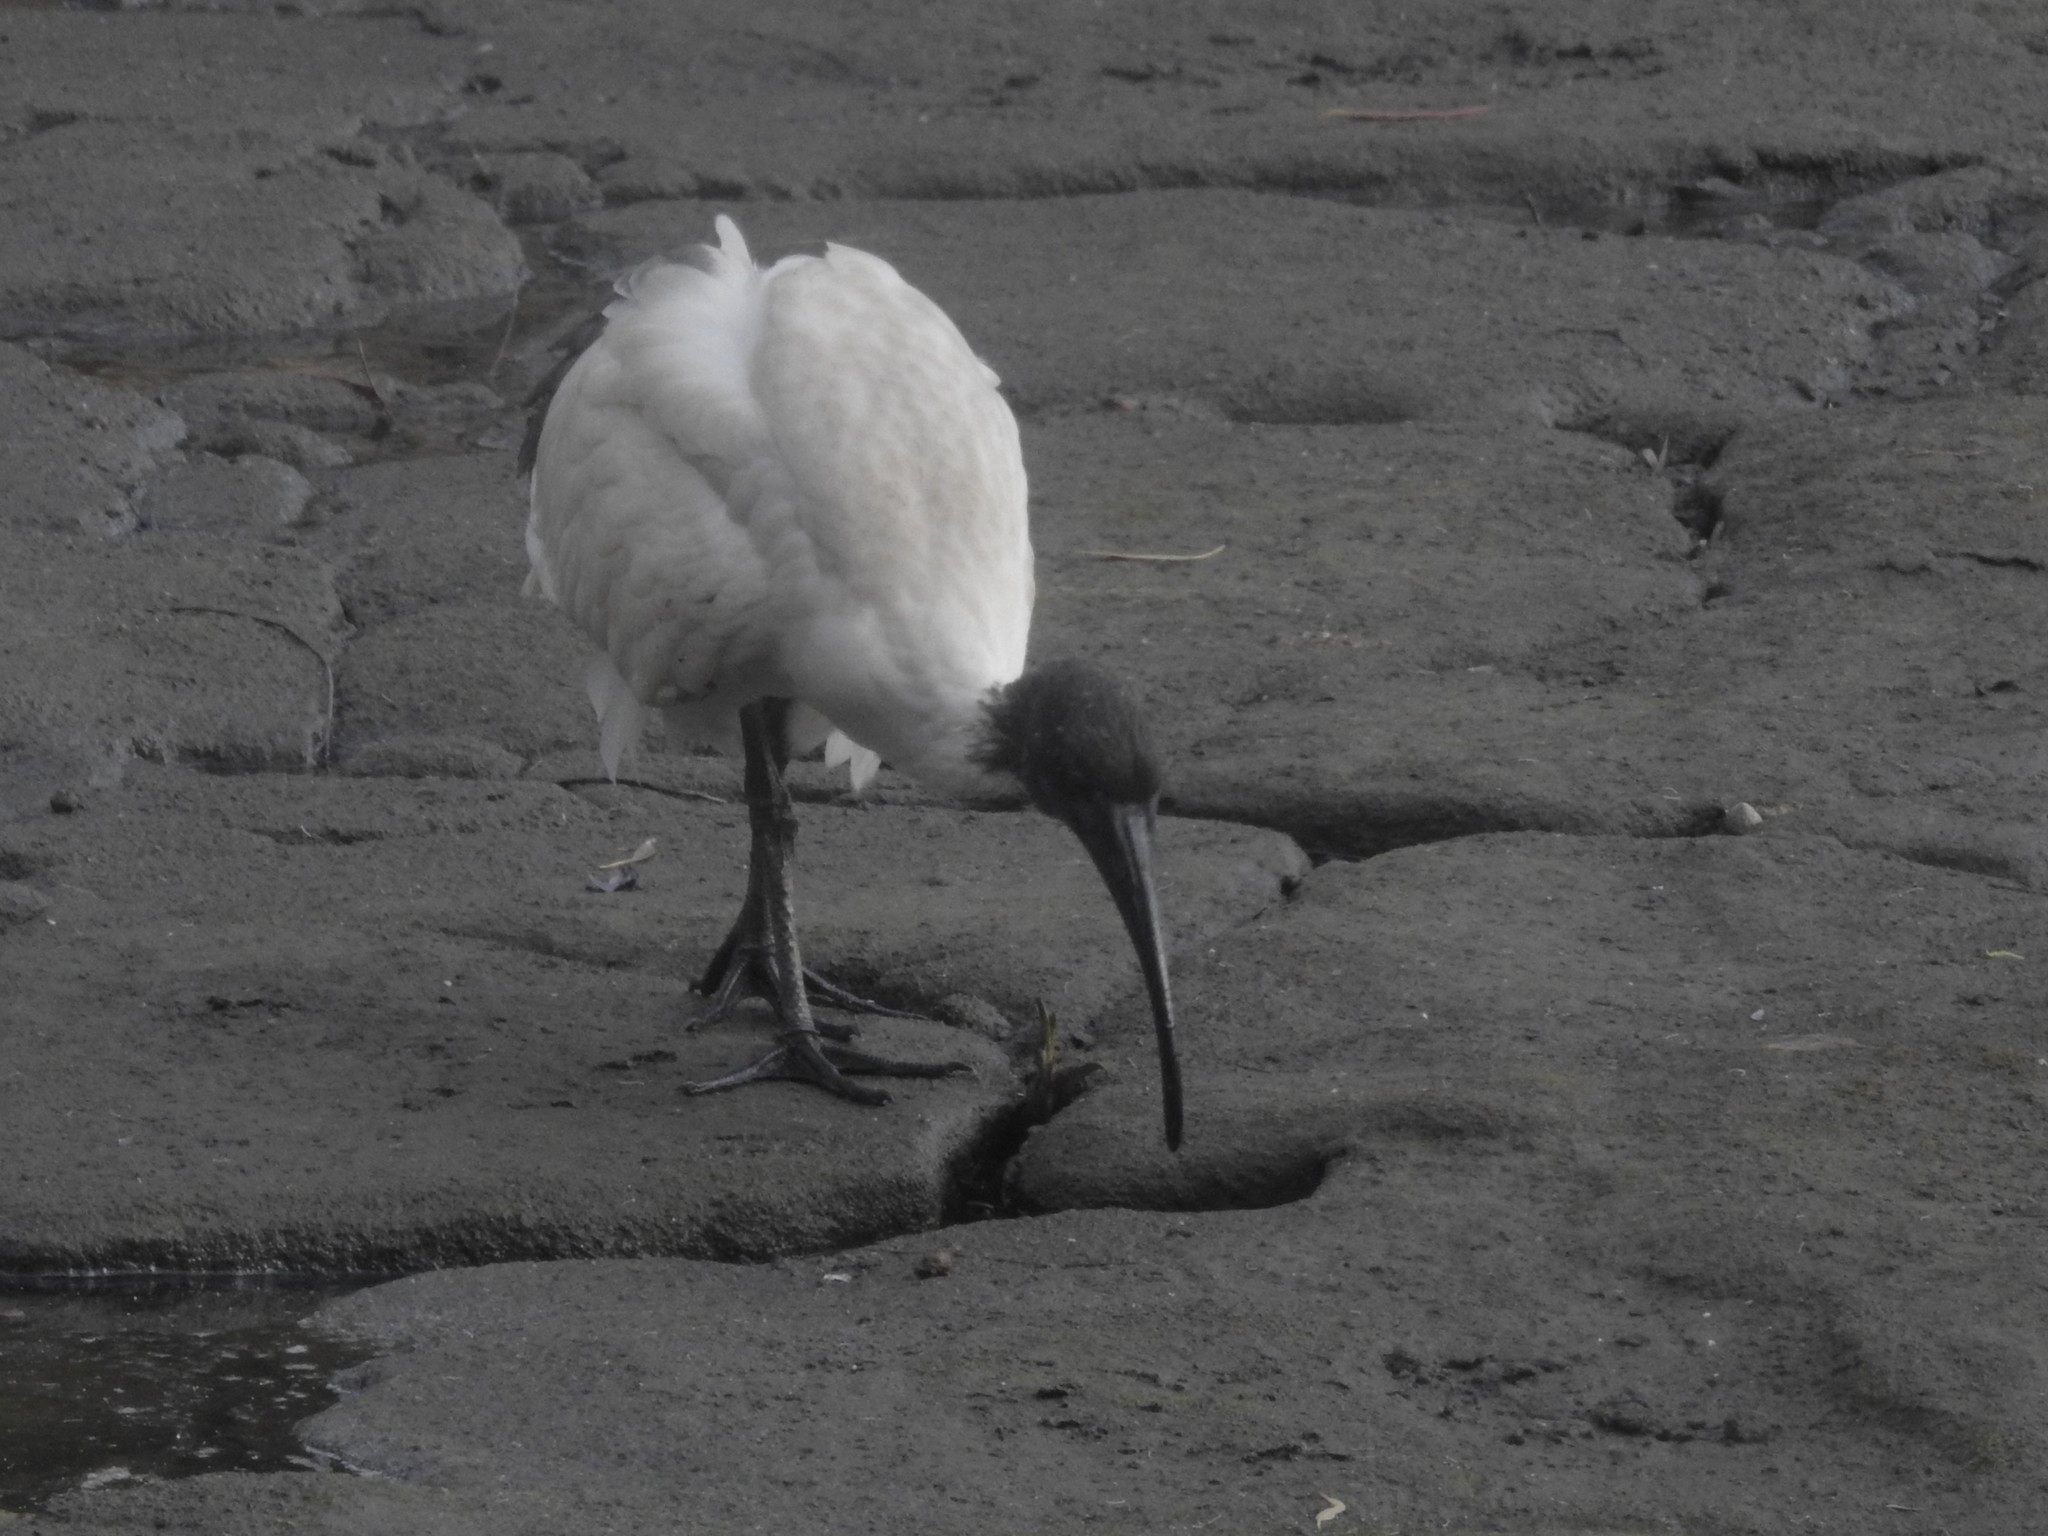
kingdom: Animalia
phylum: Chordata
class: Aves
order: Pelecaniformes
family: Threskiornithidae
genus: Threskiornis
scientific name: Threskiornis molucca
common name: Australian white ibis
